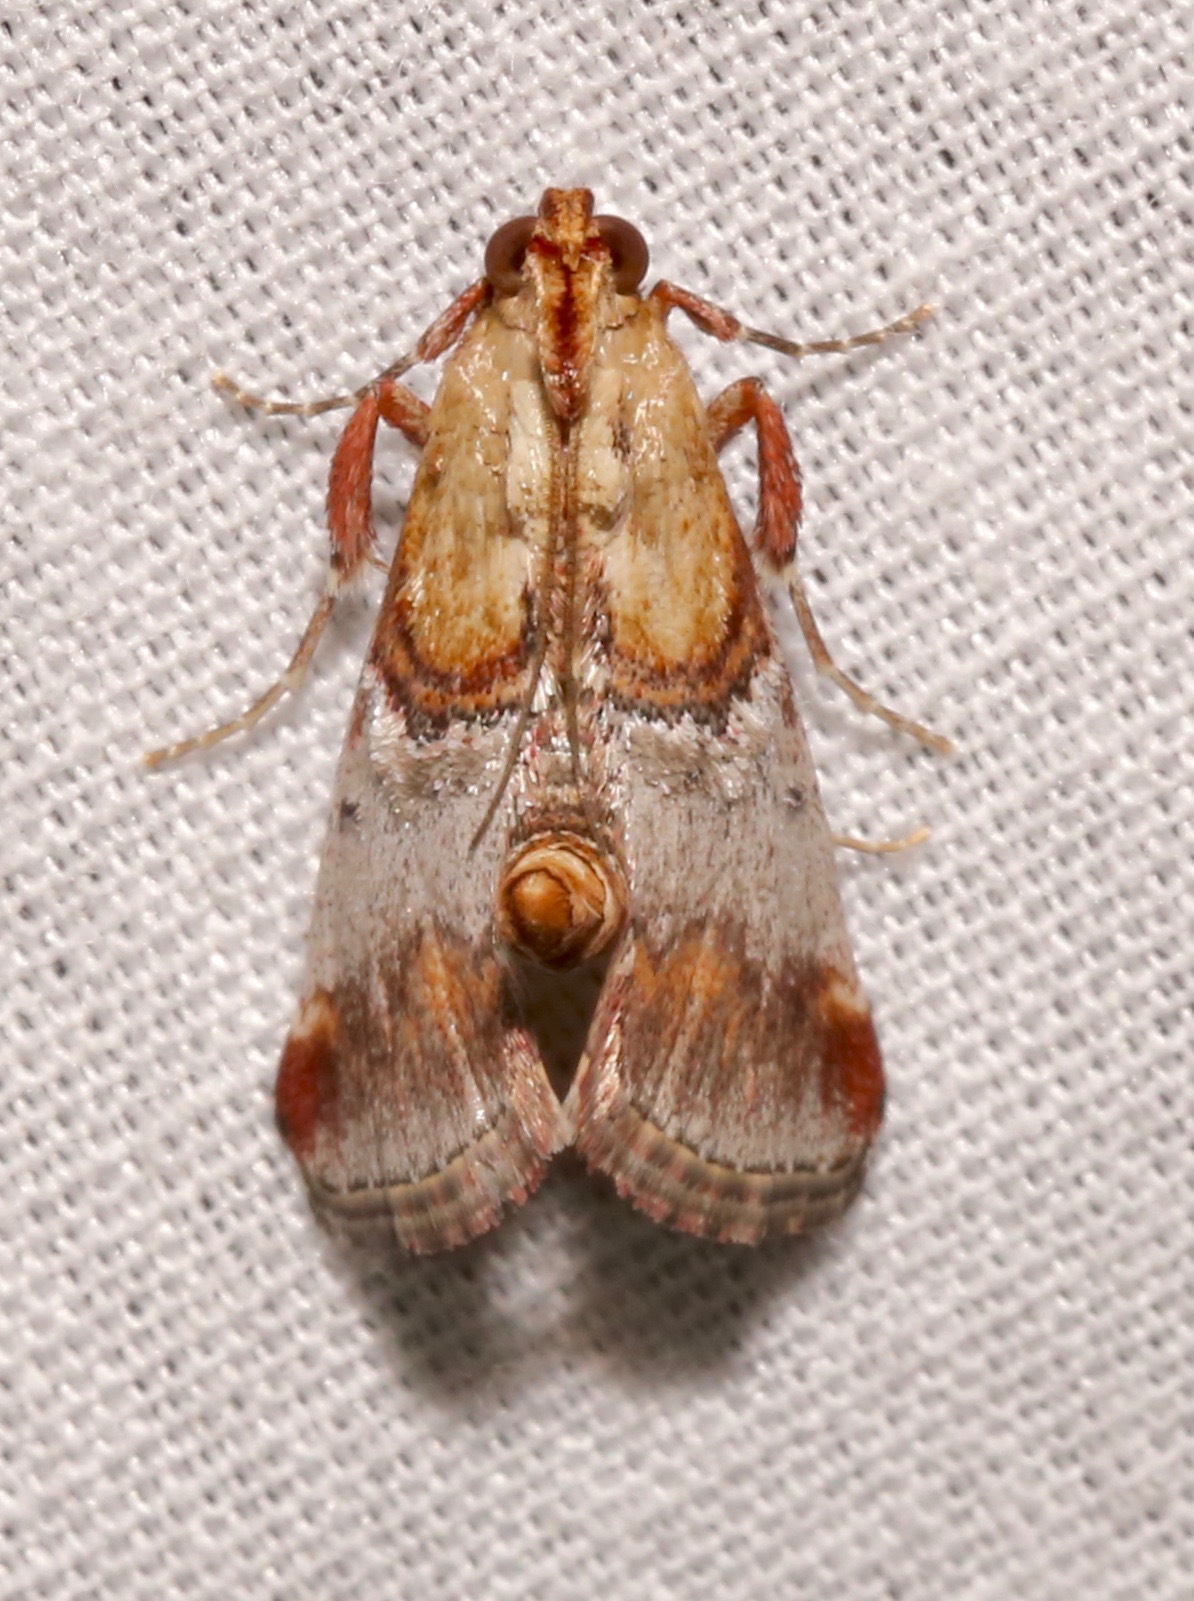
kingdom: Animalia
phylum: Arthropoda
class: Insecta
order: Lepidoptera
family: Pyralidae
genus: Cacozelia
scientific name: Cacozelia basiochrealis
